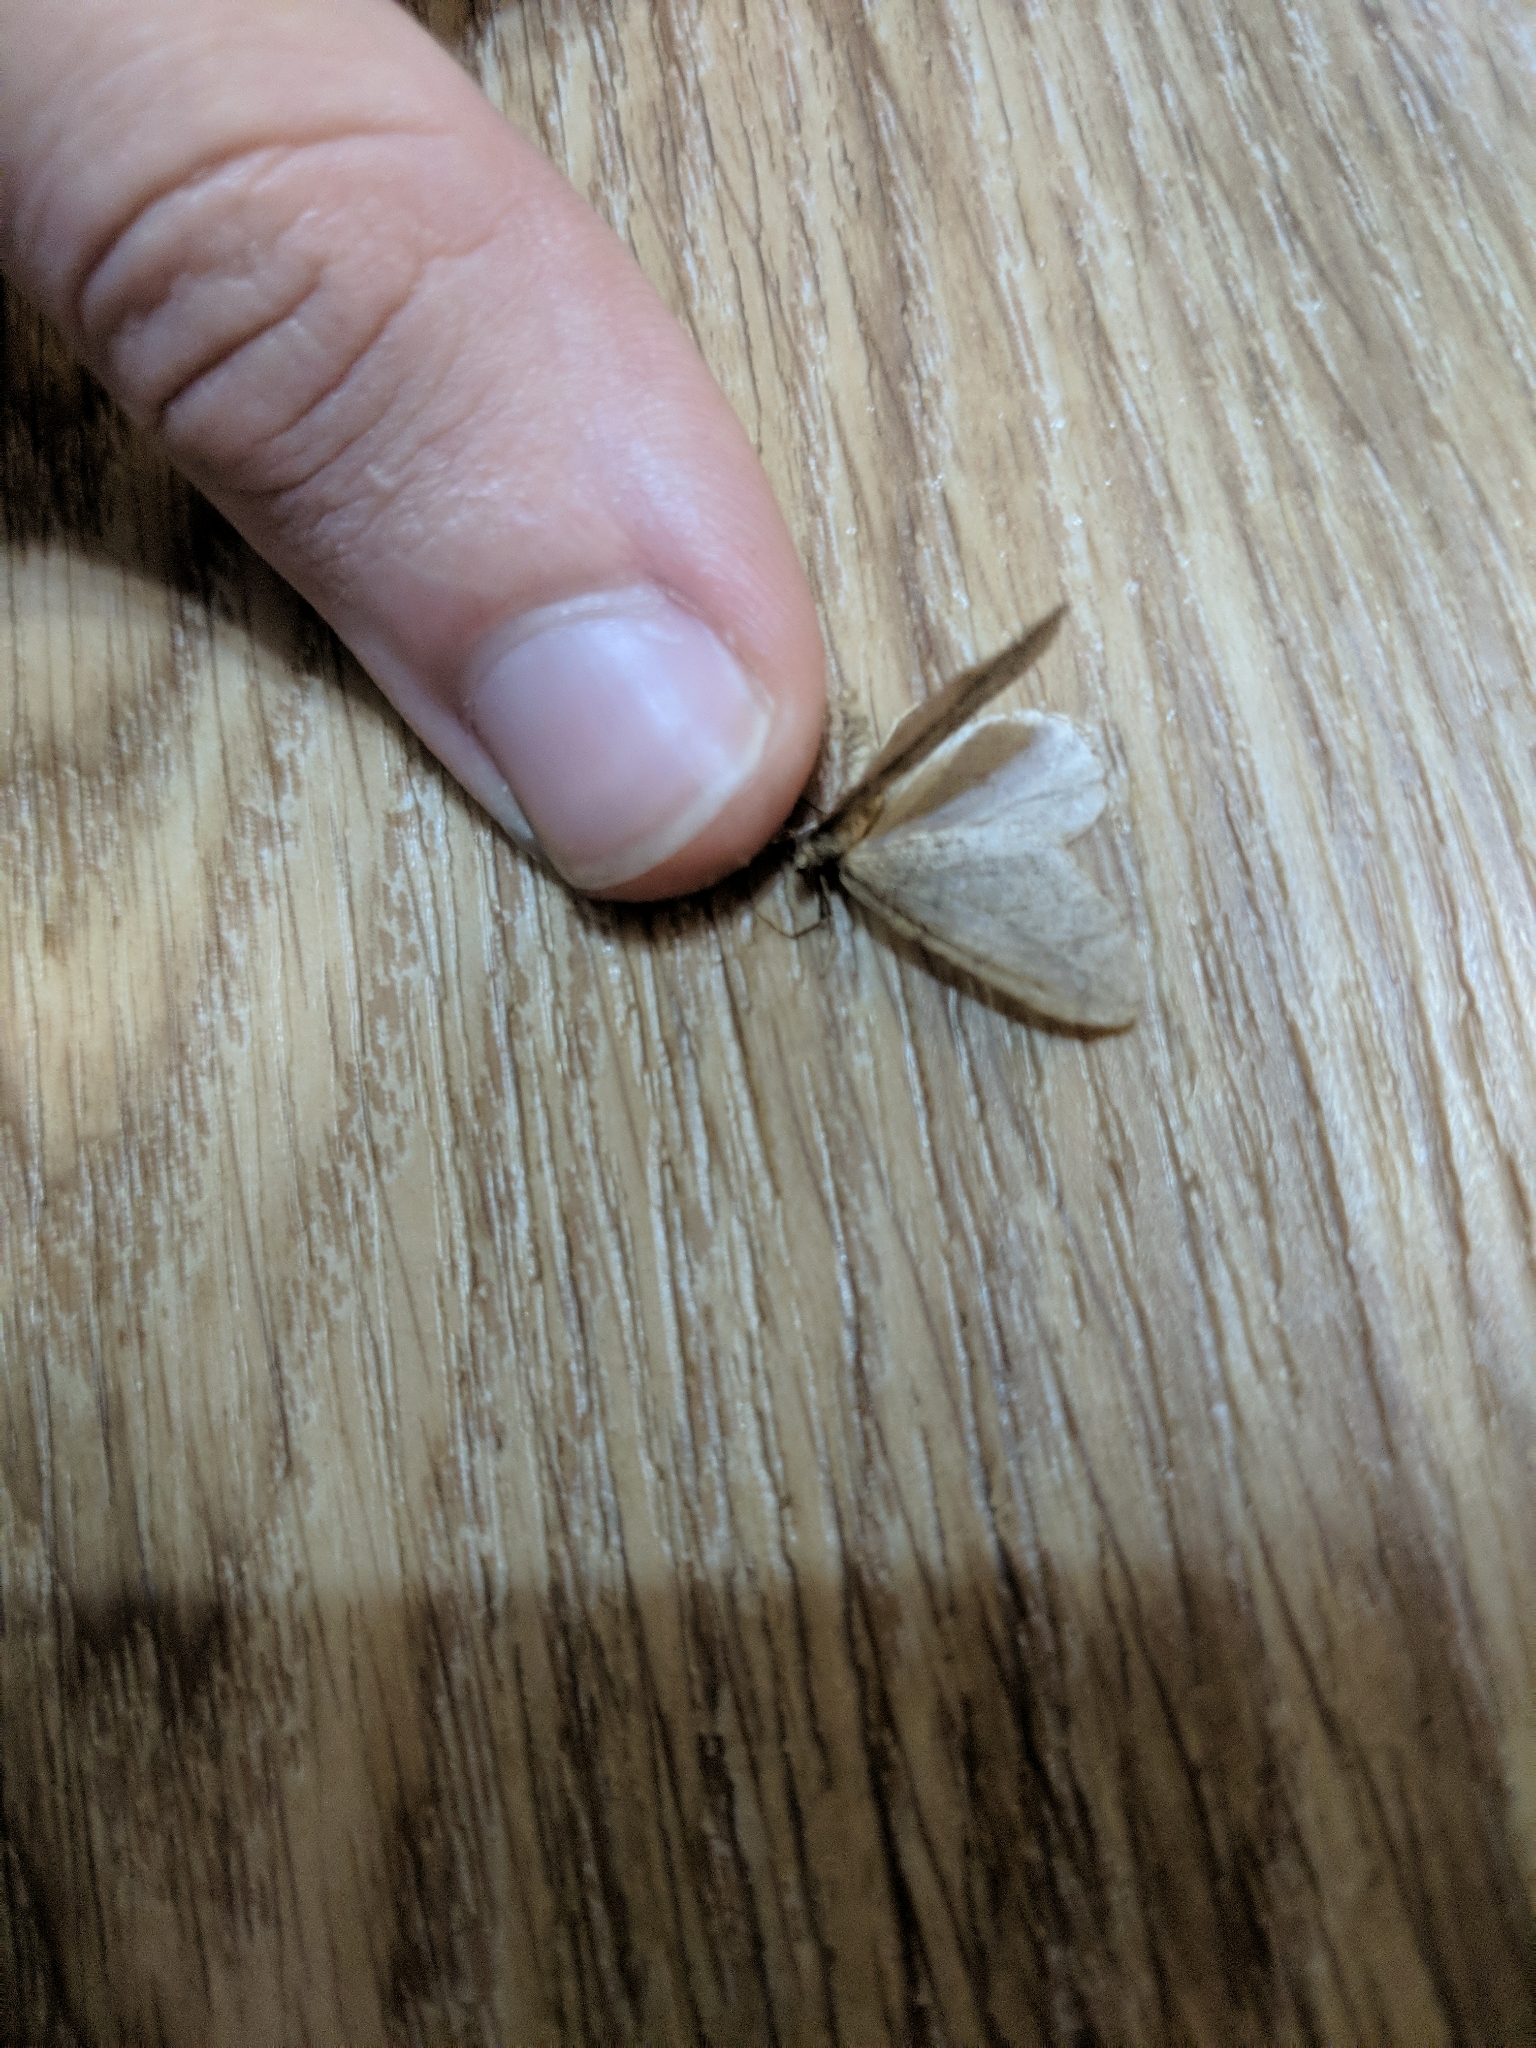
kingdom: Animalia
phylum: Arthropoda
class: Insecta
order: Lepidoptera
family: Geometridae
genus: Operophtera
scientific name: Operophtera brumata
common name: Winter moth
